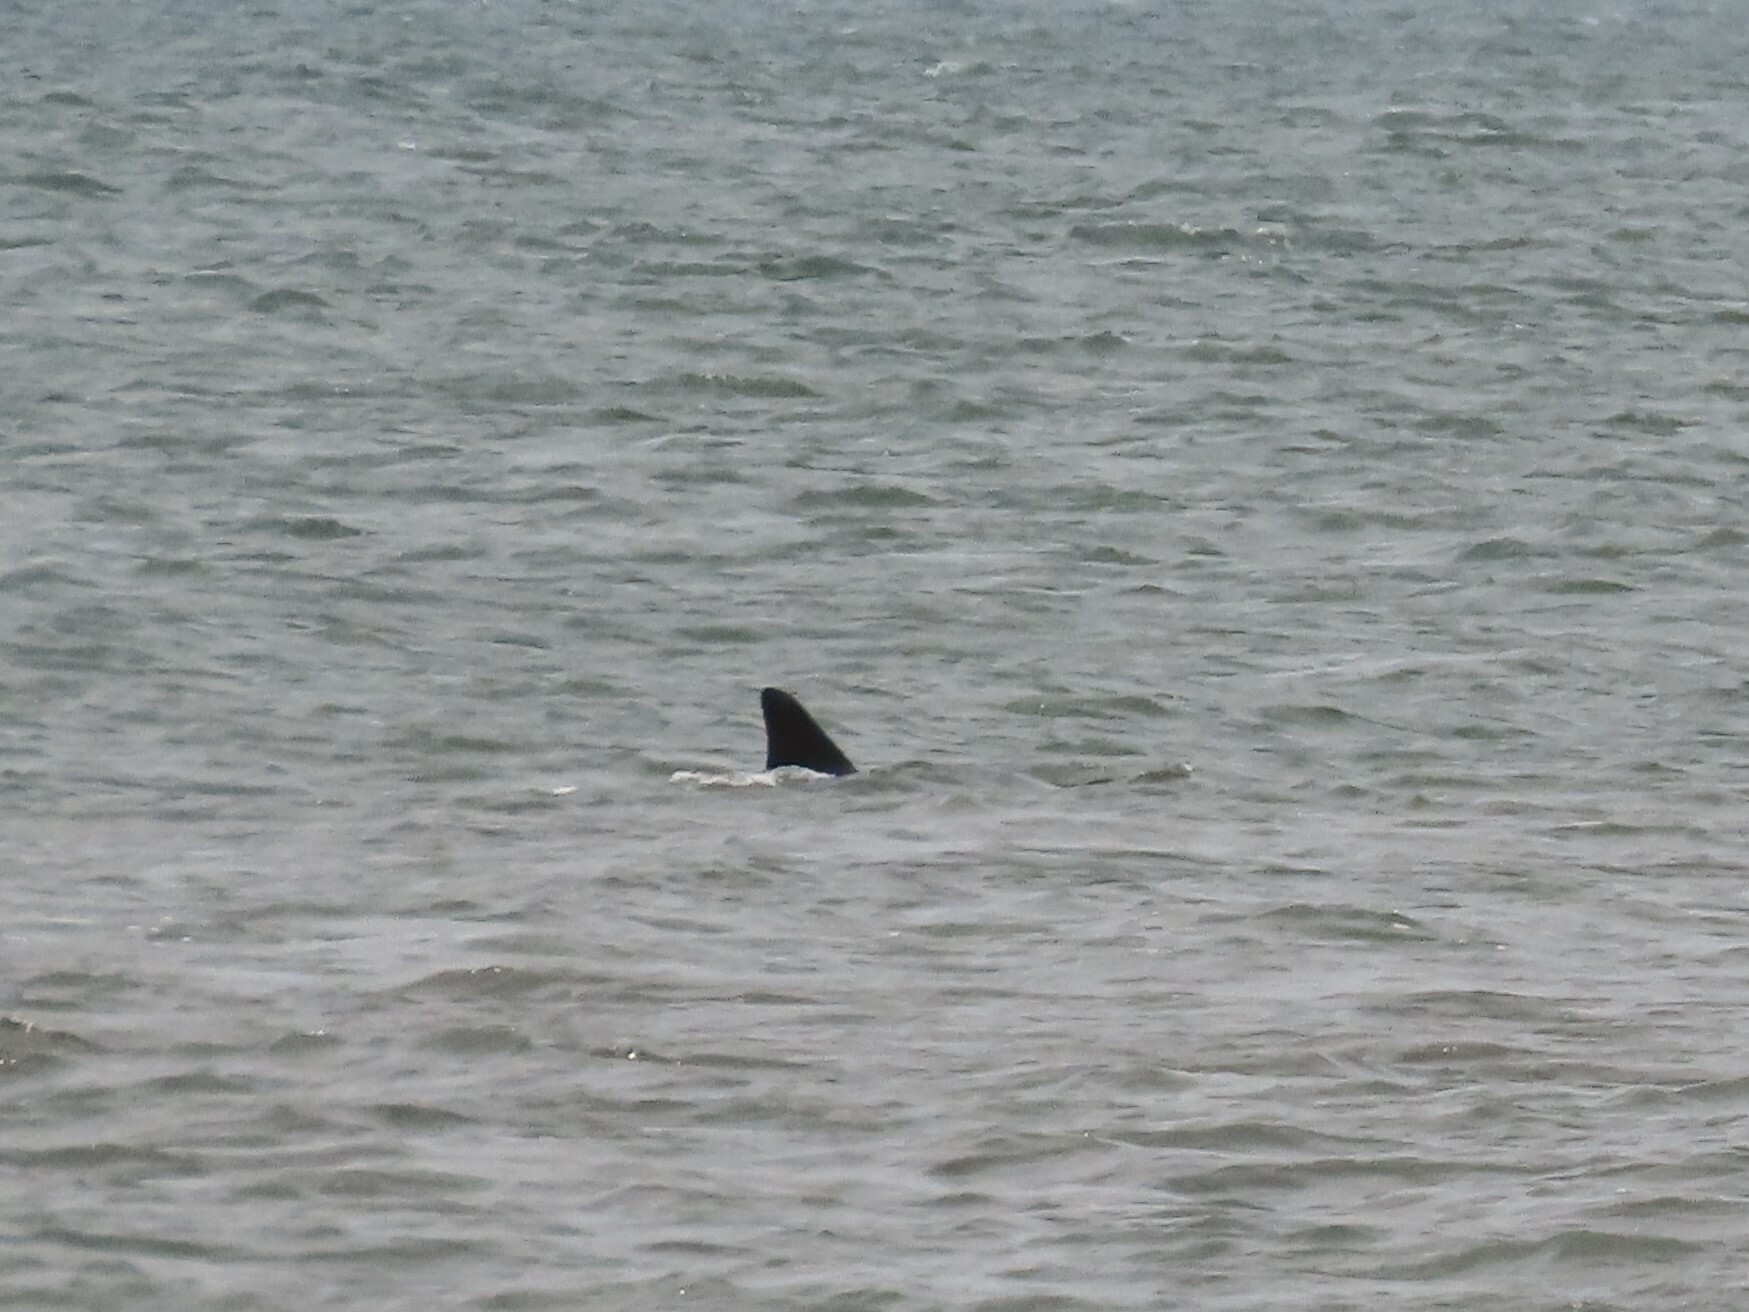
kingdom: Animalia
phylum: Chordata
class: Mammalia
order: Cetacea
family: Delphinidae
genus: Tursiops
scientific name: Tursiops truncatus
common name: Bottlenose dolphin
